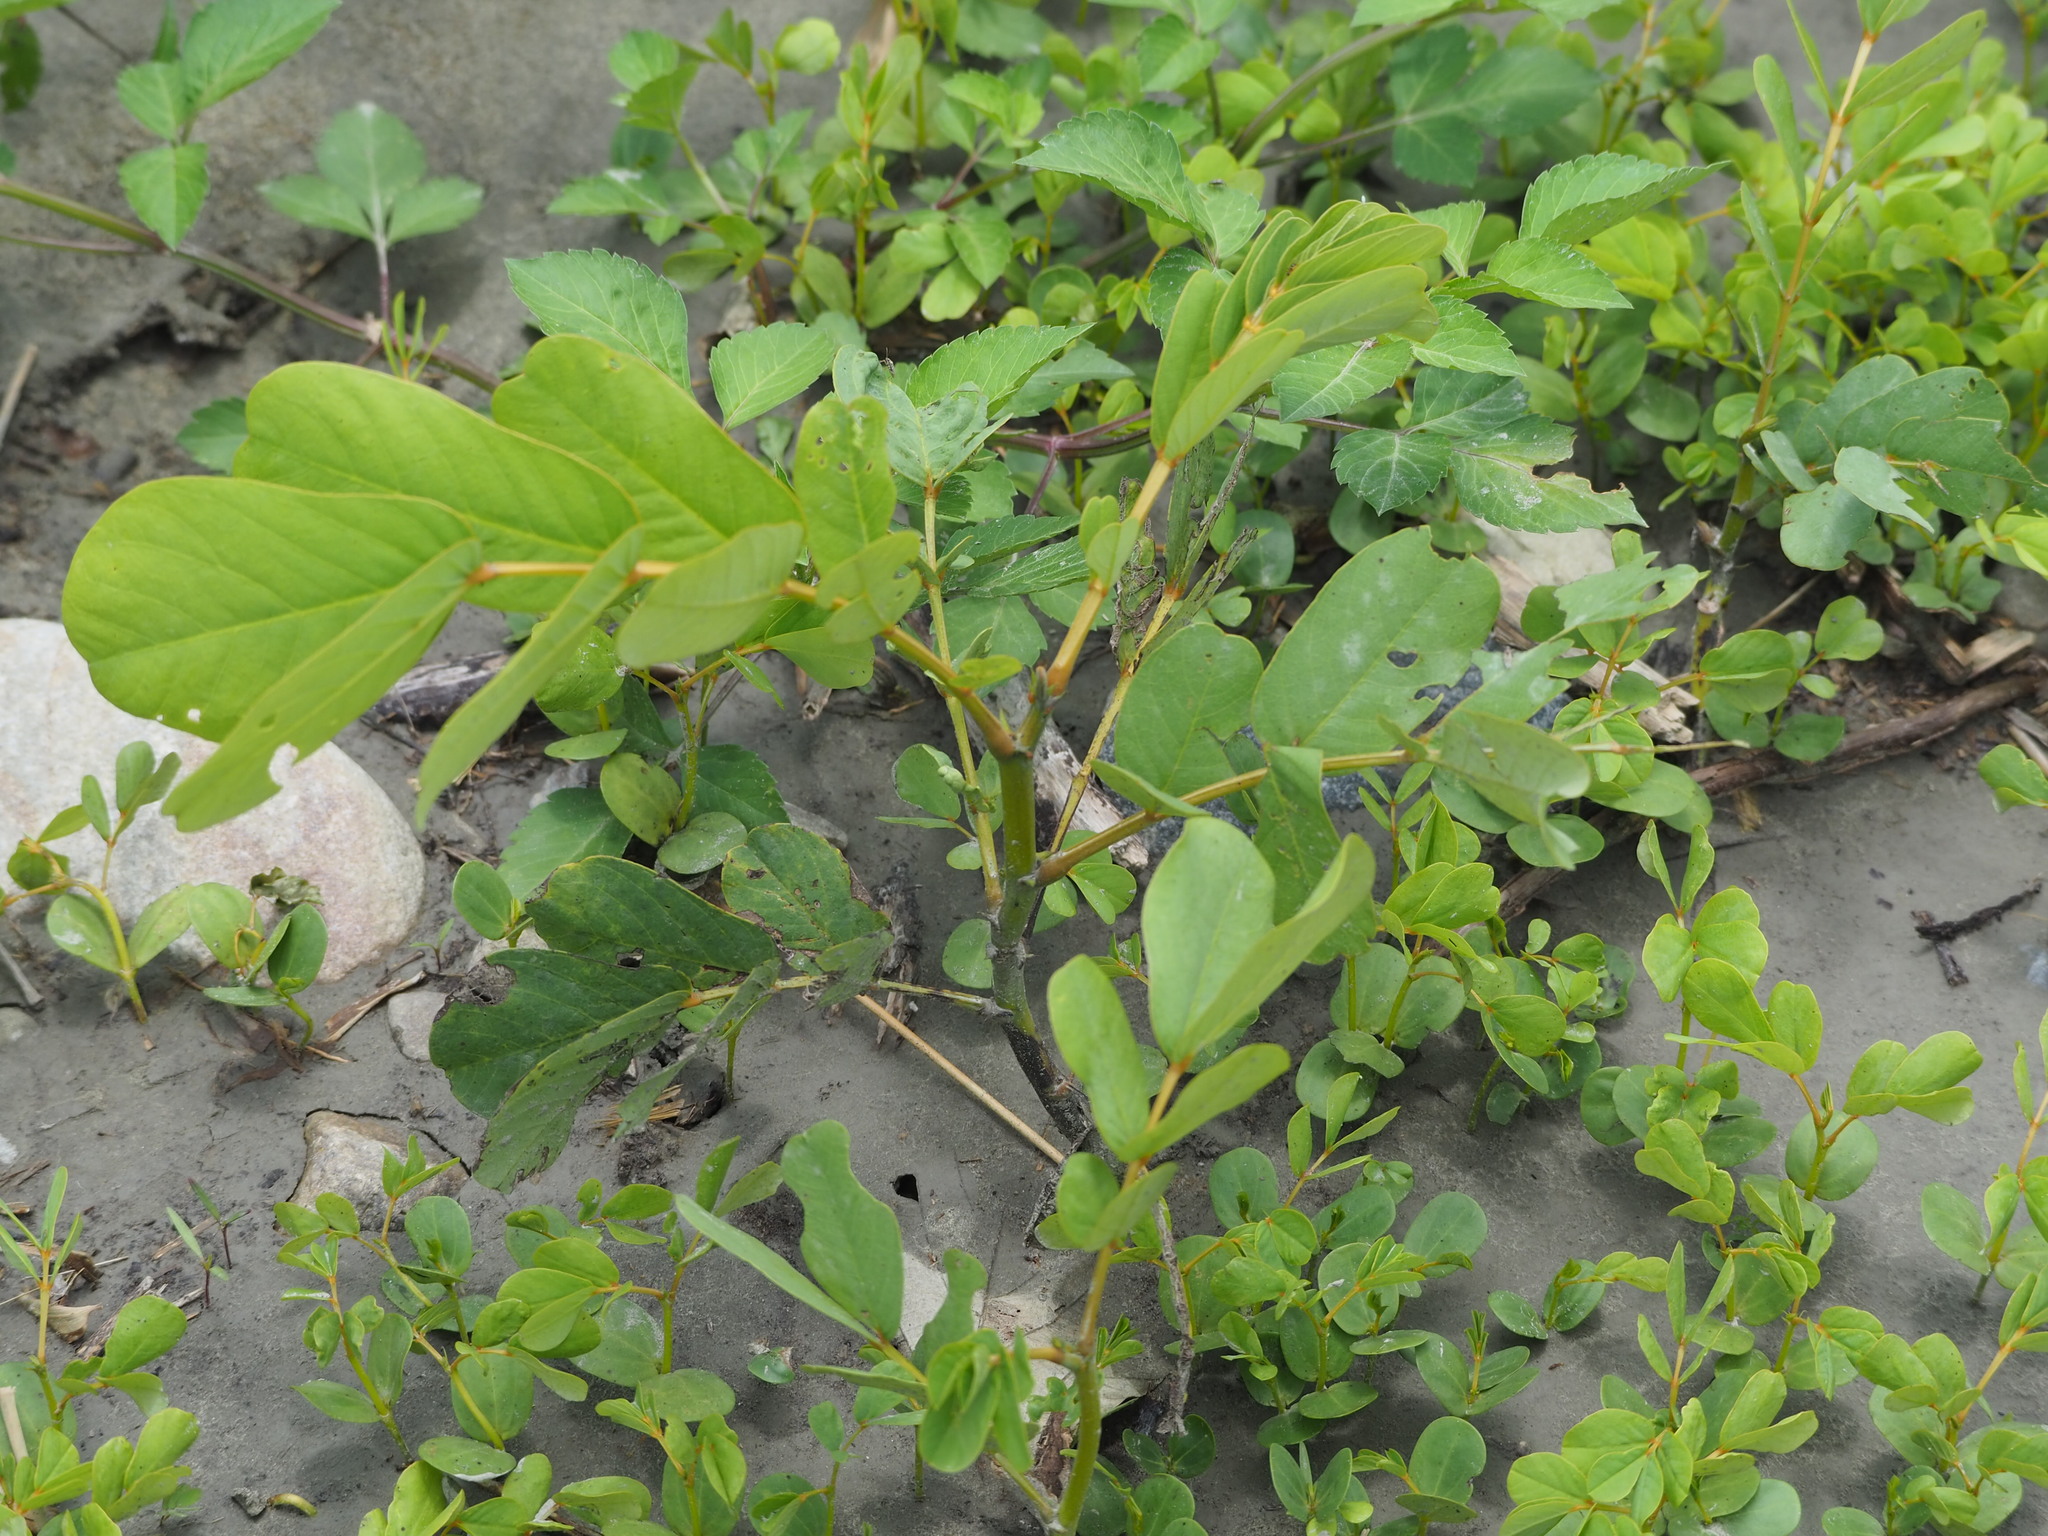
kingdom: Plantae
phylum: Tracheophyta
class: Magnoliopsida
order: Fabales
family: Fabaceae
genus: Senna
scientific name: Senna alata
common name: Emperor's candlesticks
